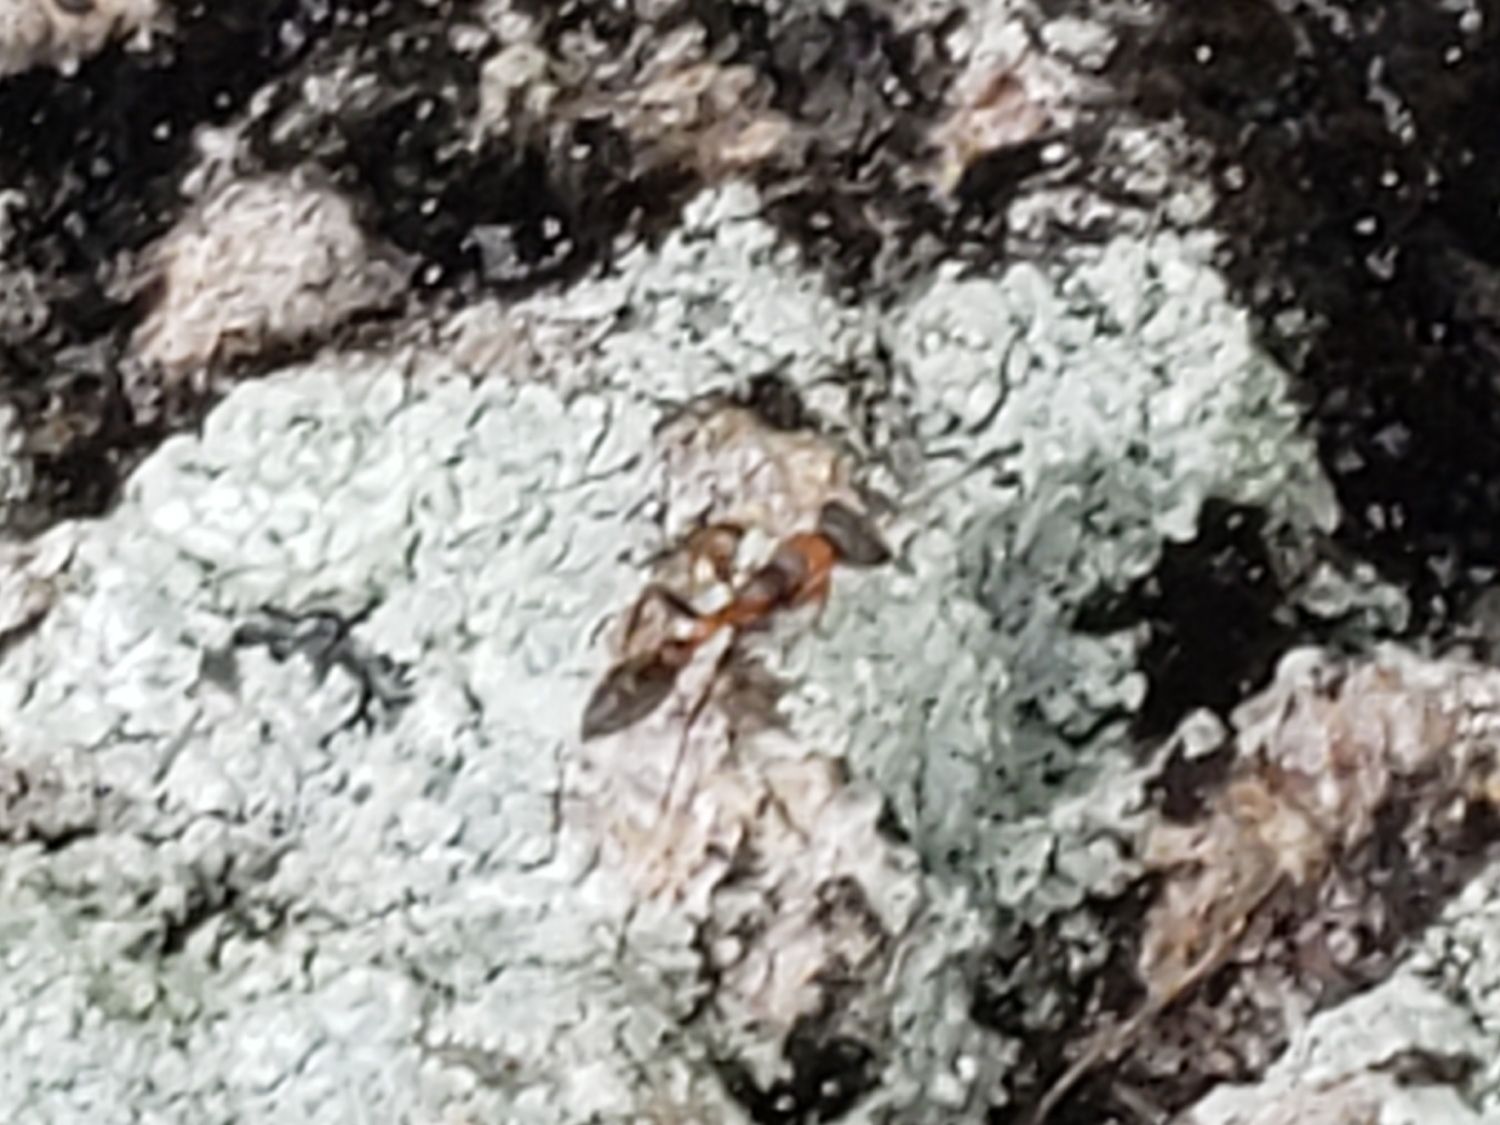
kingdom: Animalia
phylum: Arthropoda
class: Insecta
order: Hymenoptera
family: Formicidae
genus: Pseudomyrmex
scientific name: Pseudomyrmex gracilis
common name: Graceful twig ant
